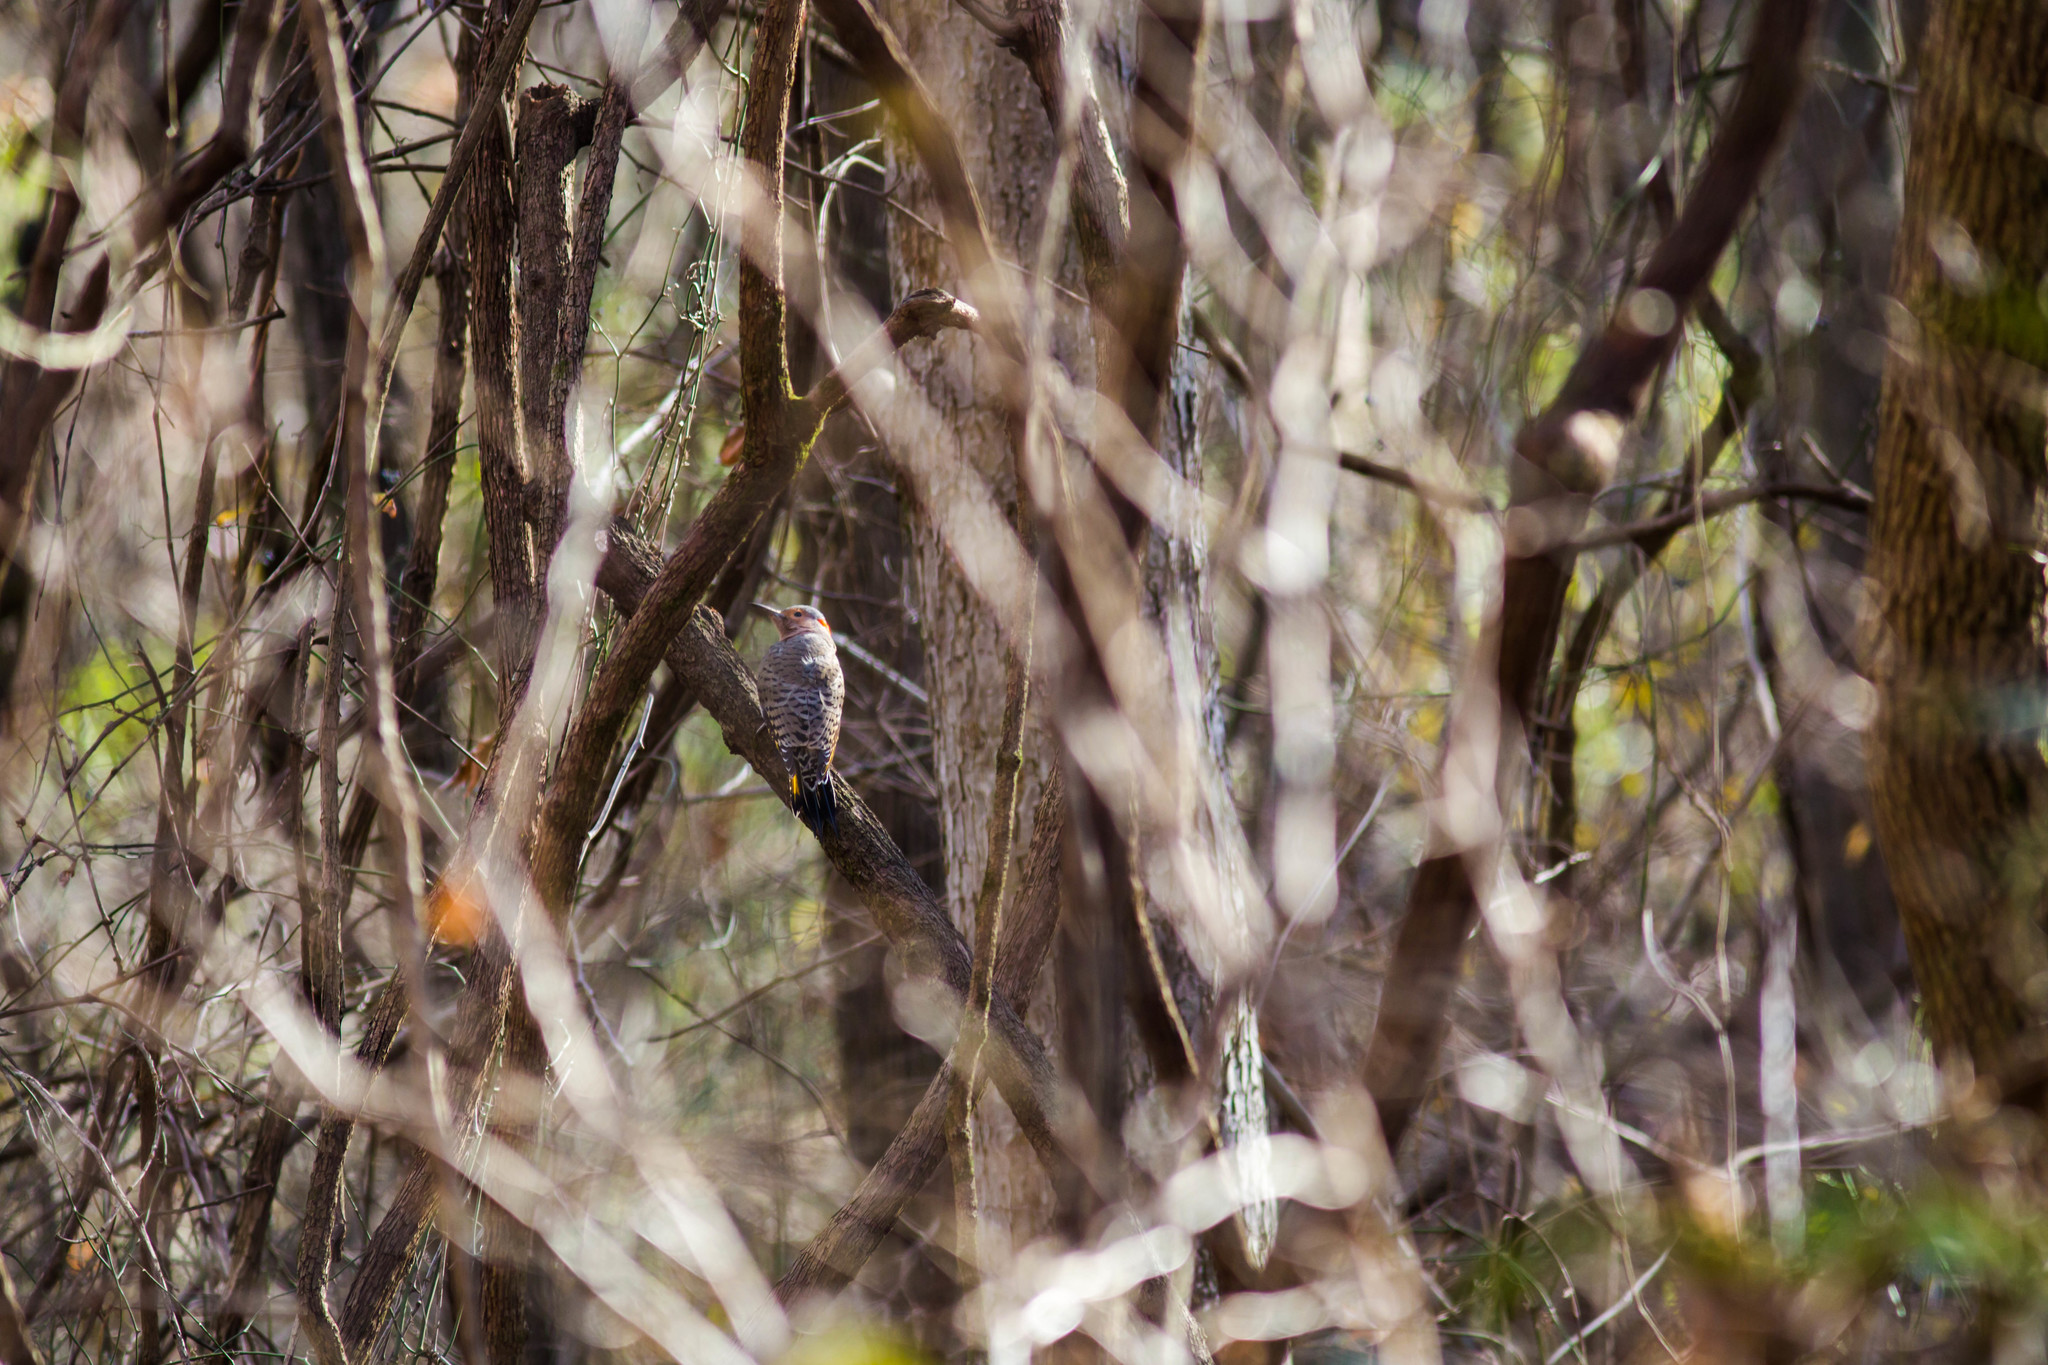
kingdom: Animalia
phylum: Chordata
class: Aves
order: Piciformes
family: Picidae
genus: Colaptes
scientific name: Colaptes auratus
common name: Northern flicker
